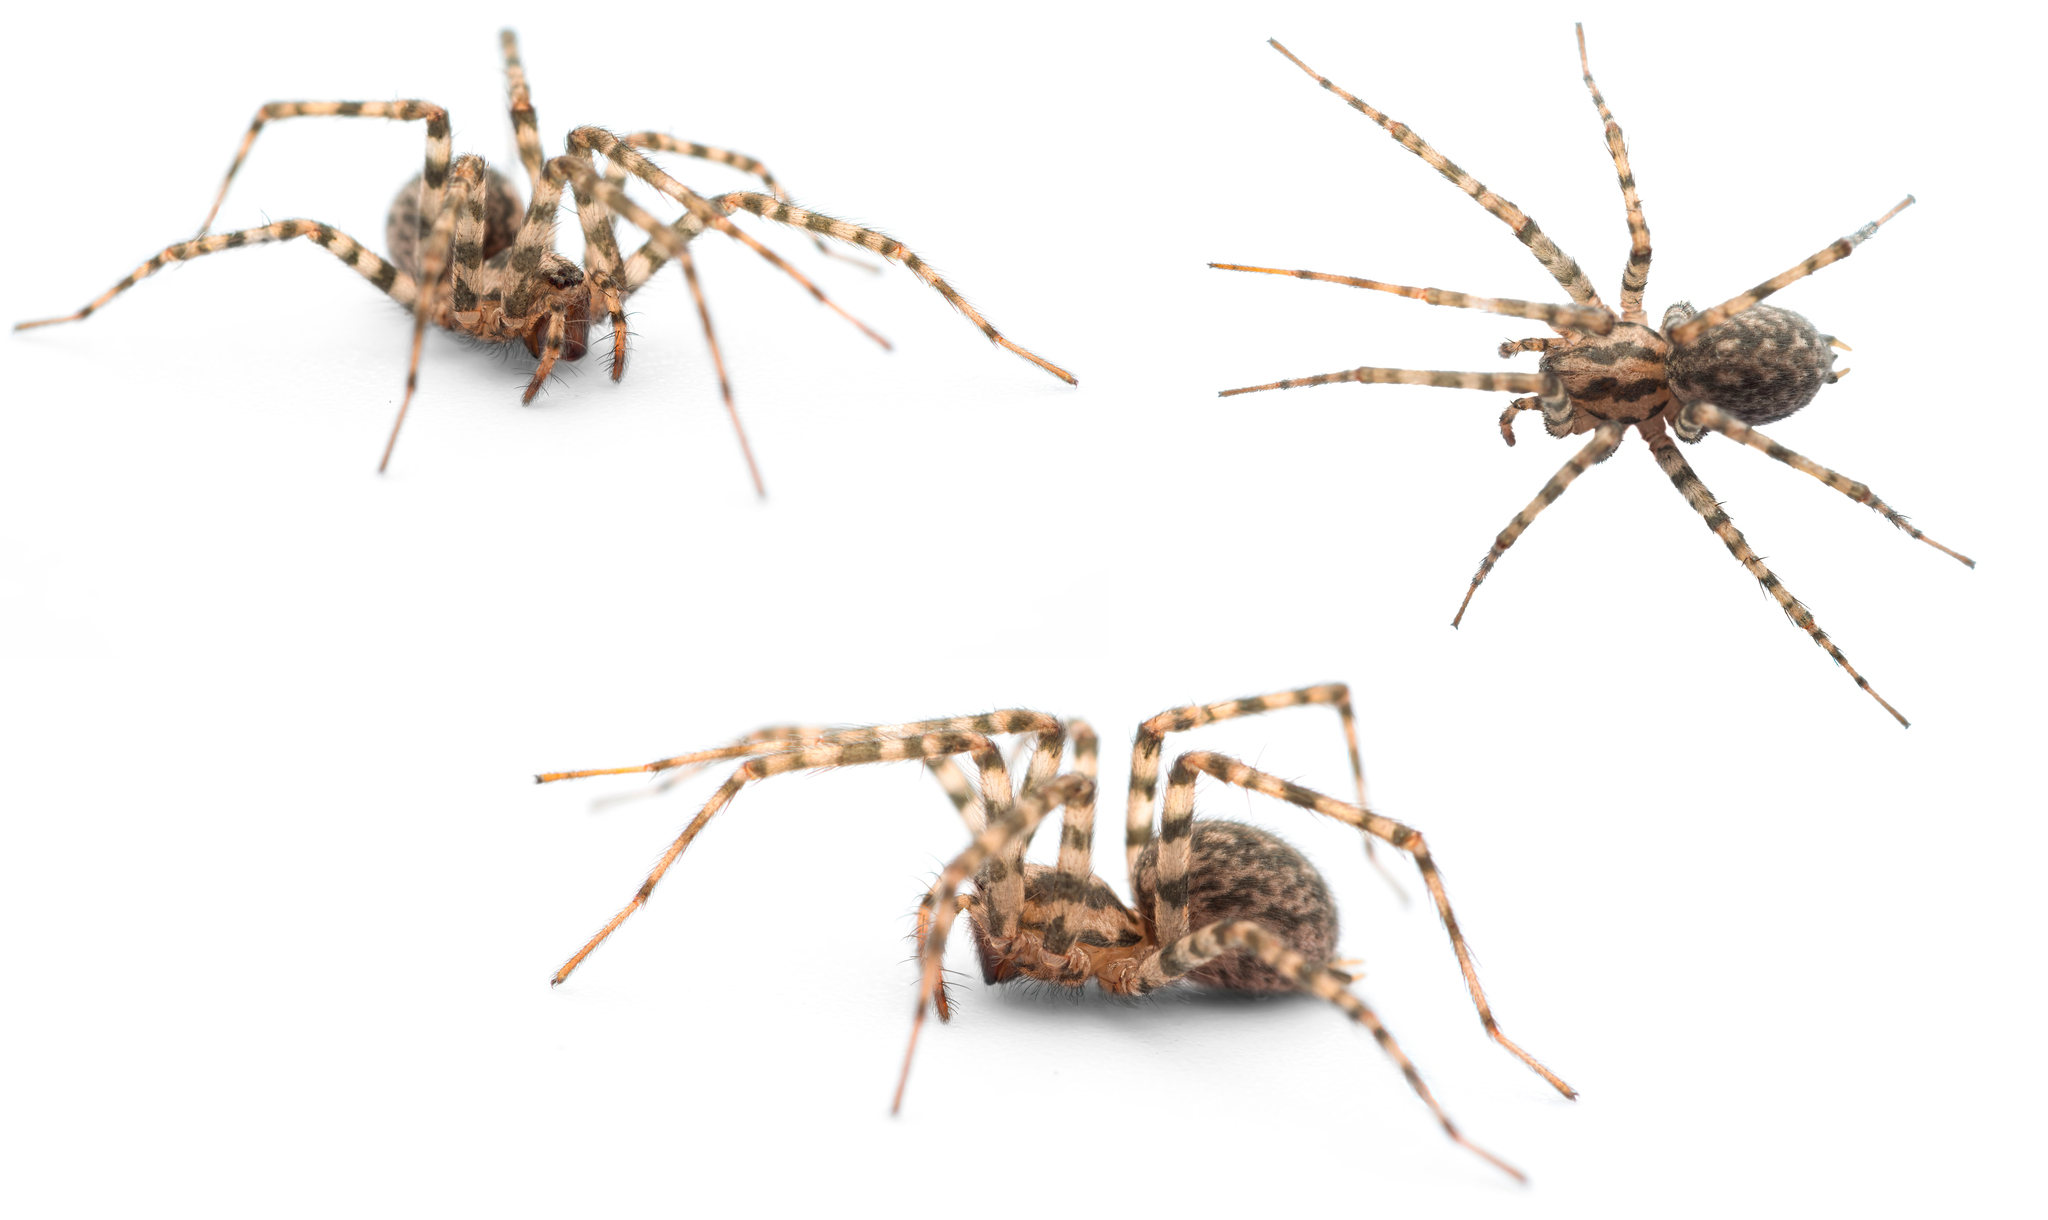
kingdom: Animalia
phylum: Arthropoda
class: Arachnida
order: Araneae
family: Agelenidae
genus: Tegenaria
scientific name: Tegenaria dalmatica
